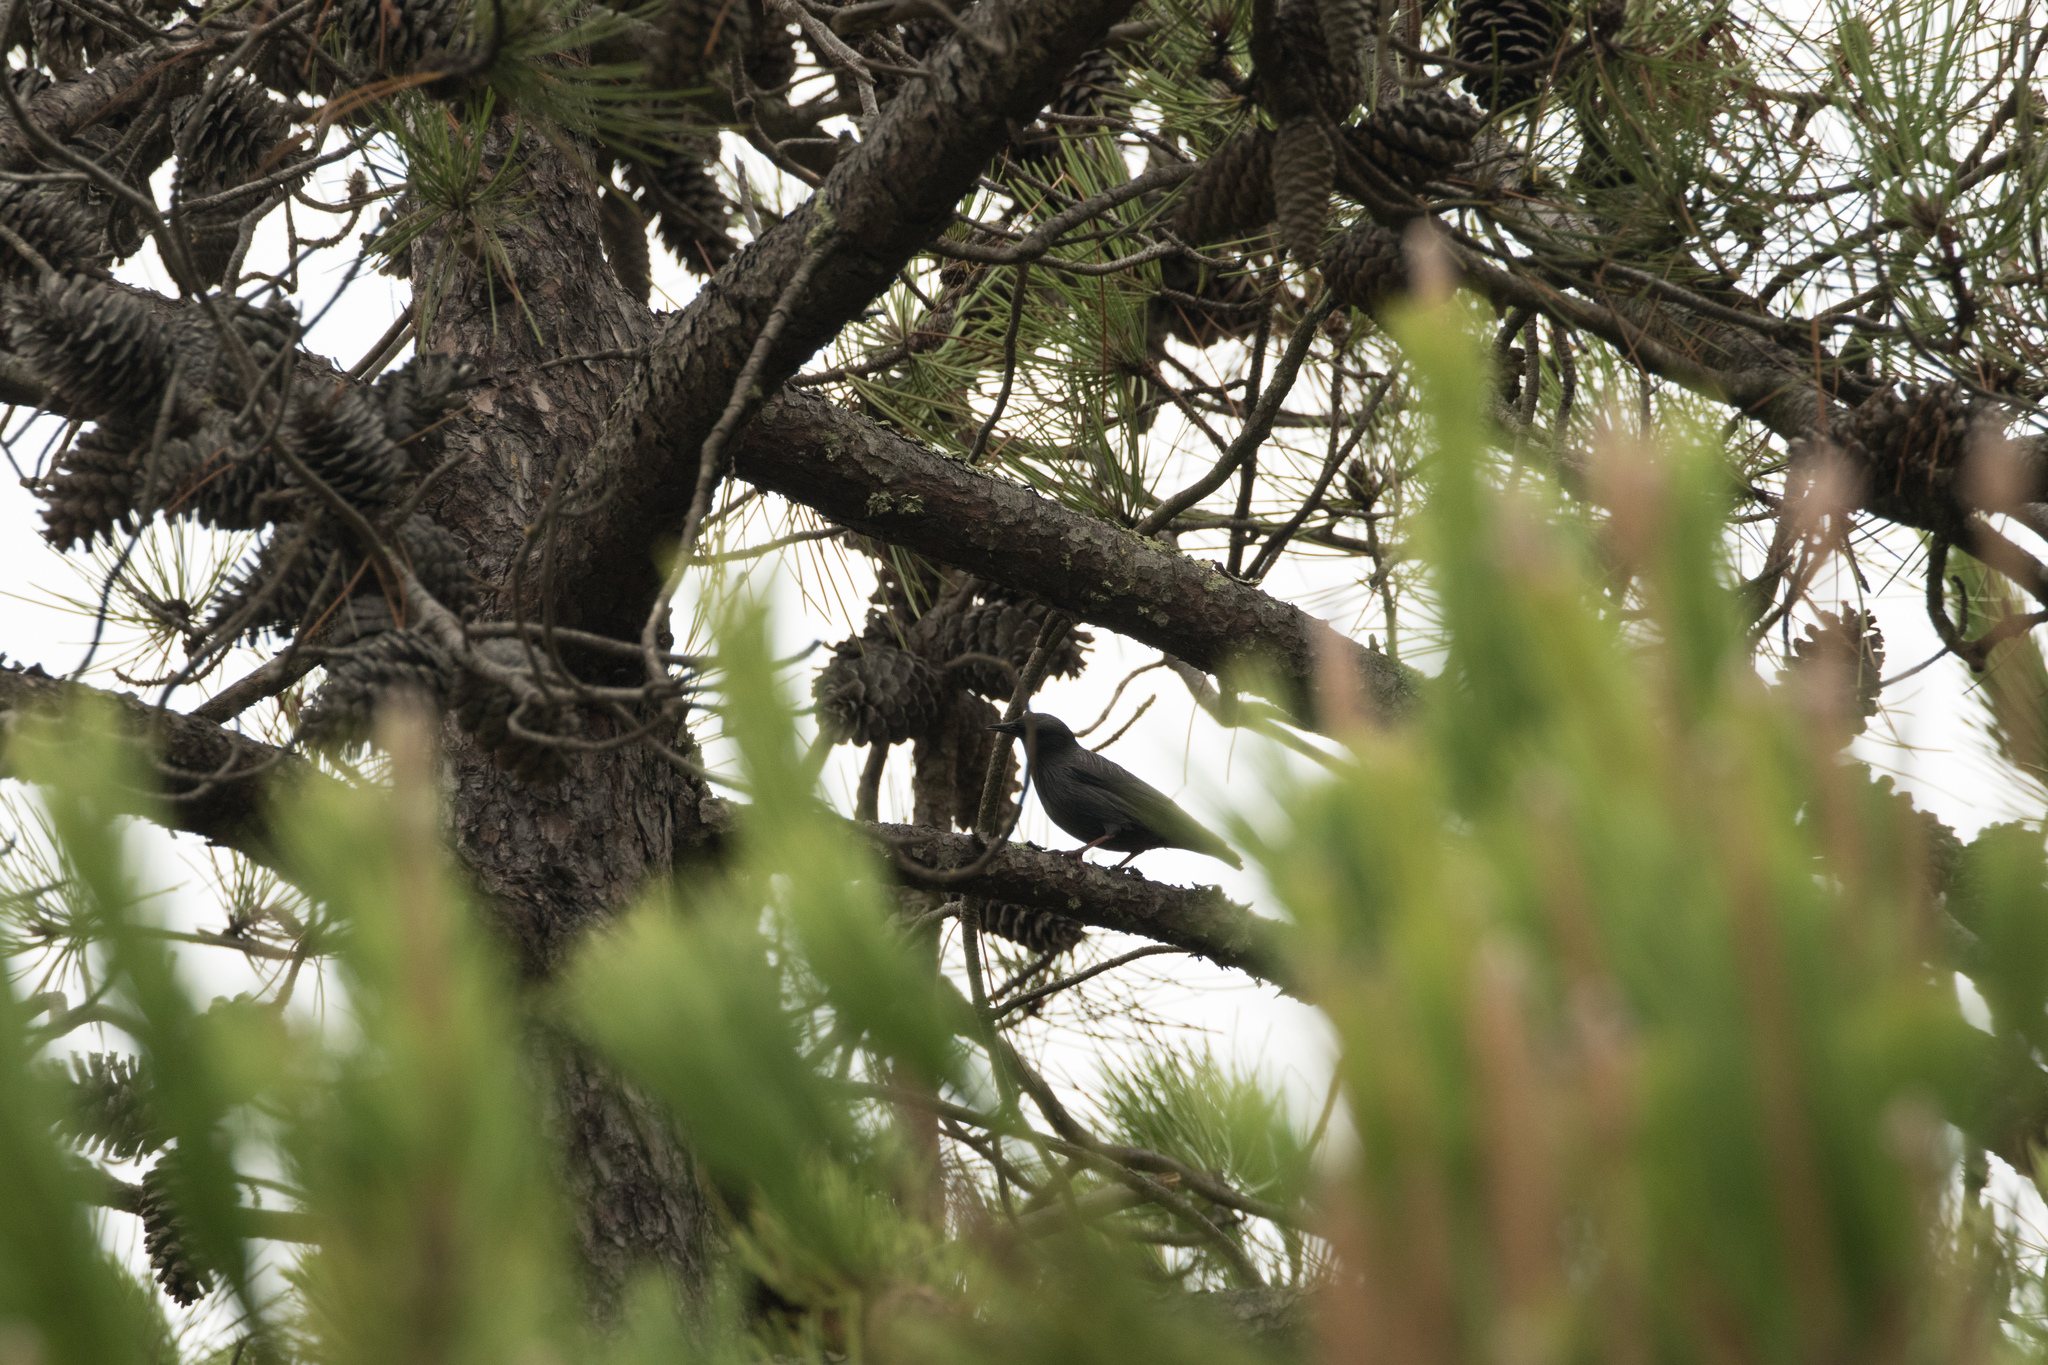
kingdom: Animalia
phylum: Chordata
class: Aves
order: Passeriformes
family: Sturnidae
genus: Sturnus
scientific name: Sturnus unicolor
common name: Spotless starling
